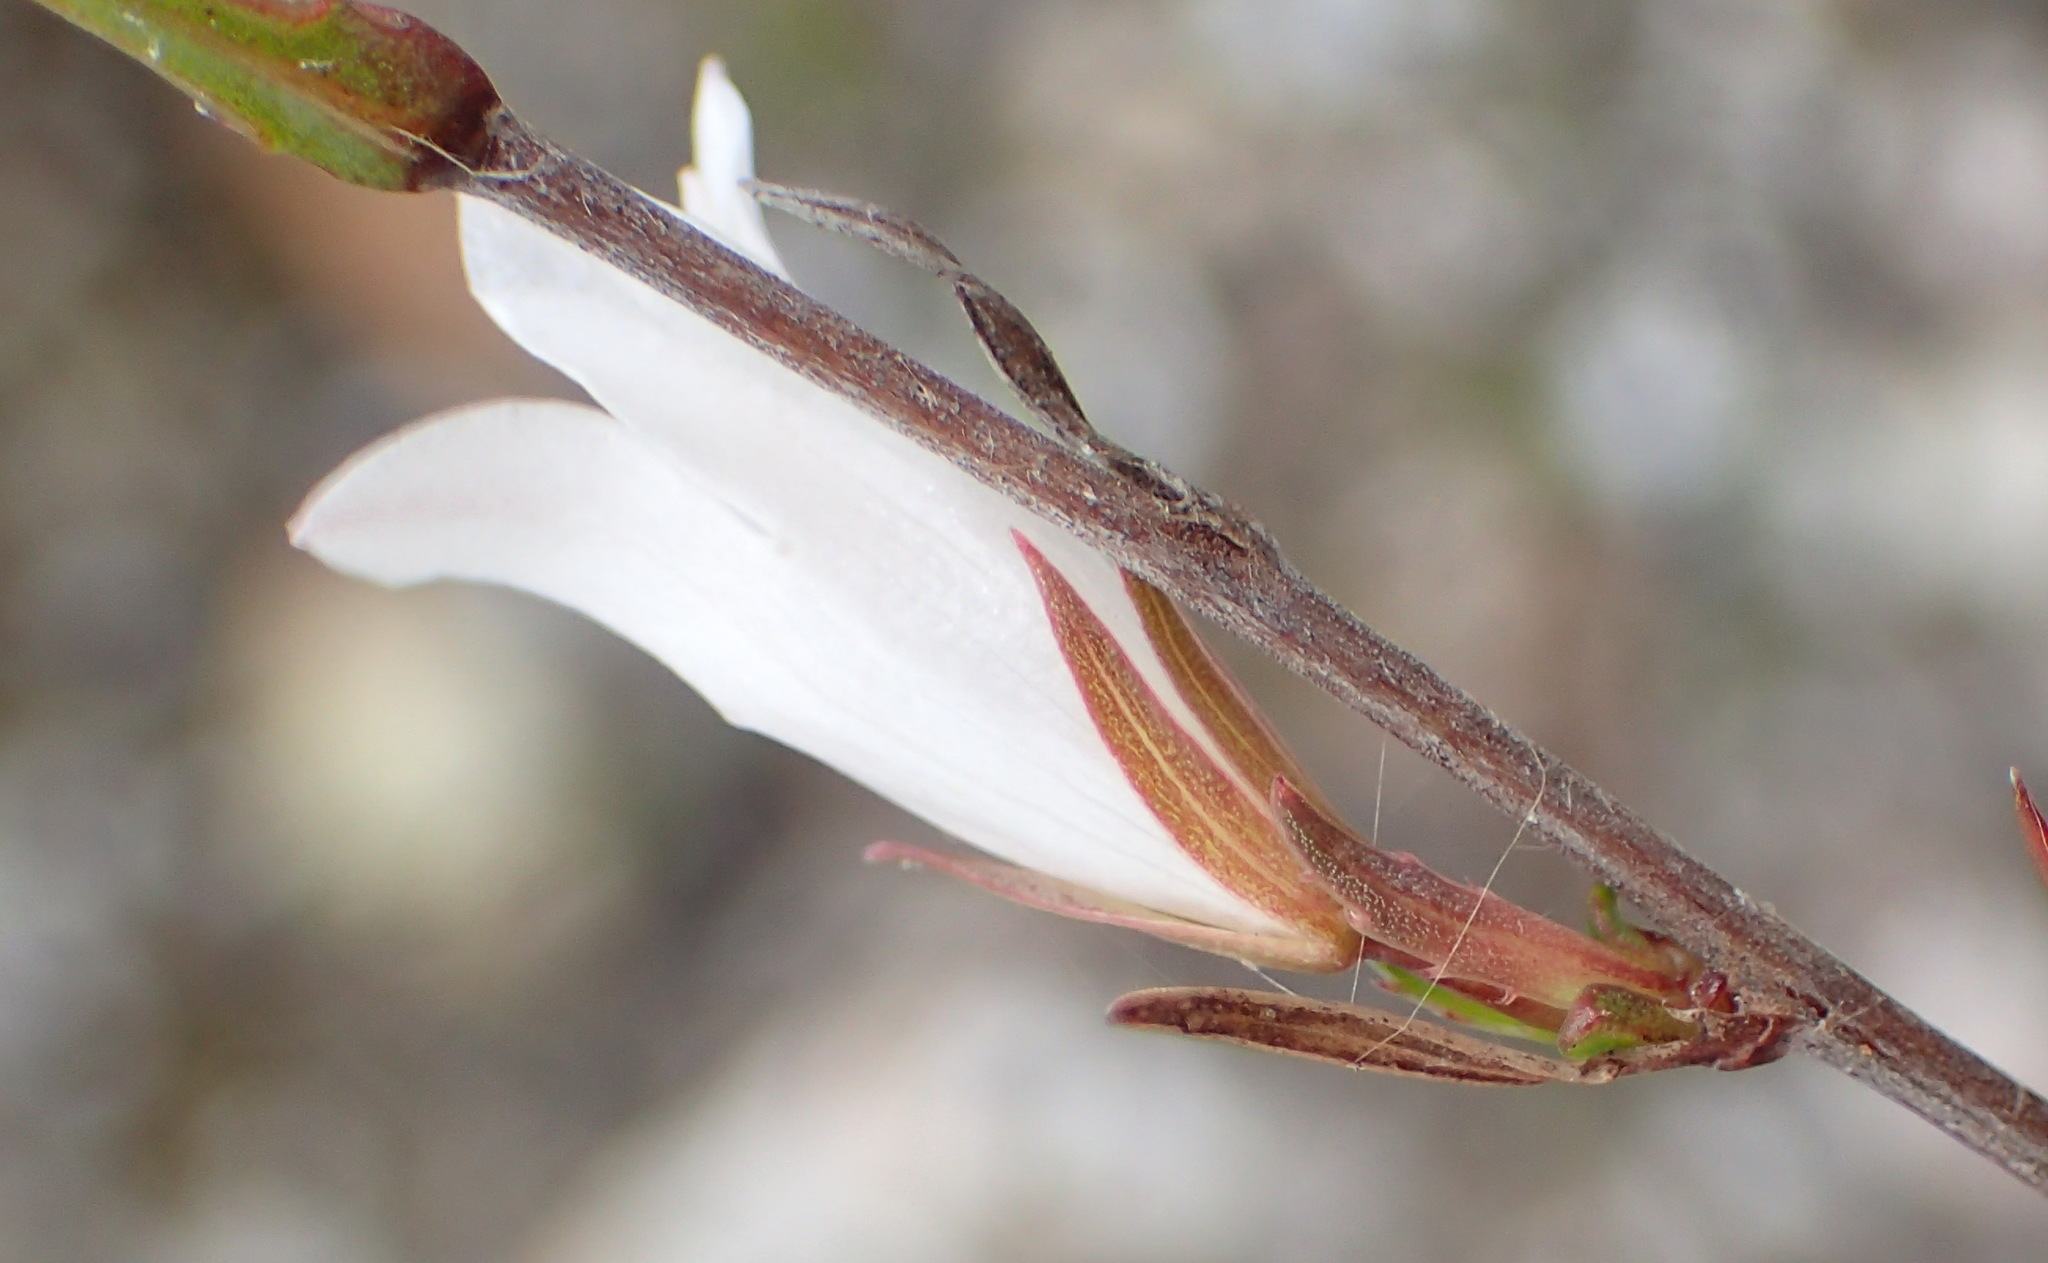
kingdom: Plantae
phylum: Tracheophyta
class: Magnoliopsida
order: Asterales
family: Campanulaceae
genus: Prismatocarpus
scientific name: Prismatocarpus candolleanus
